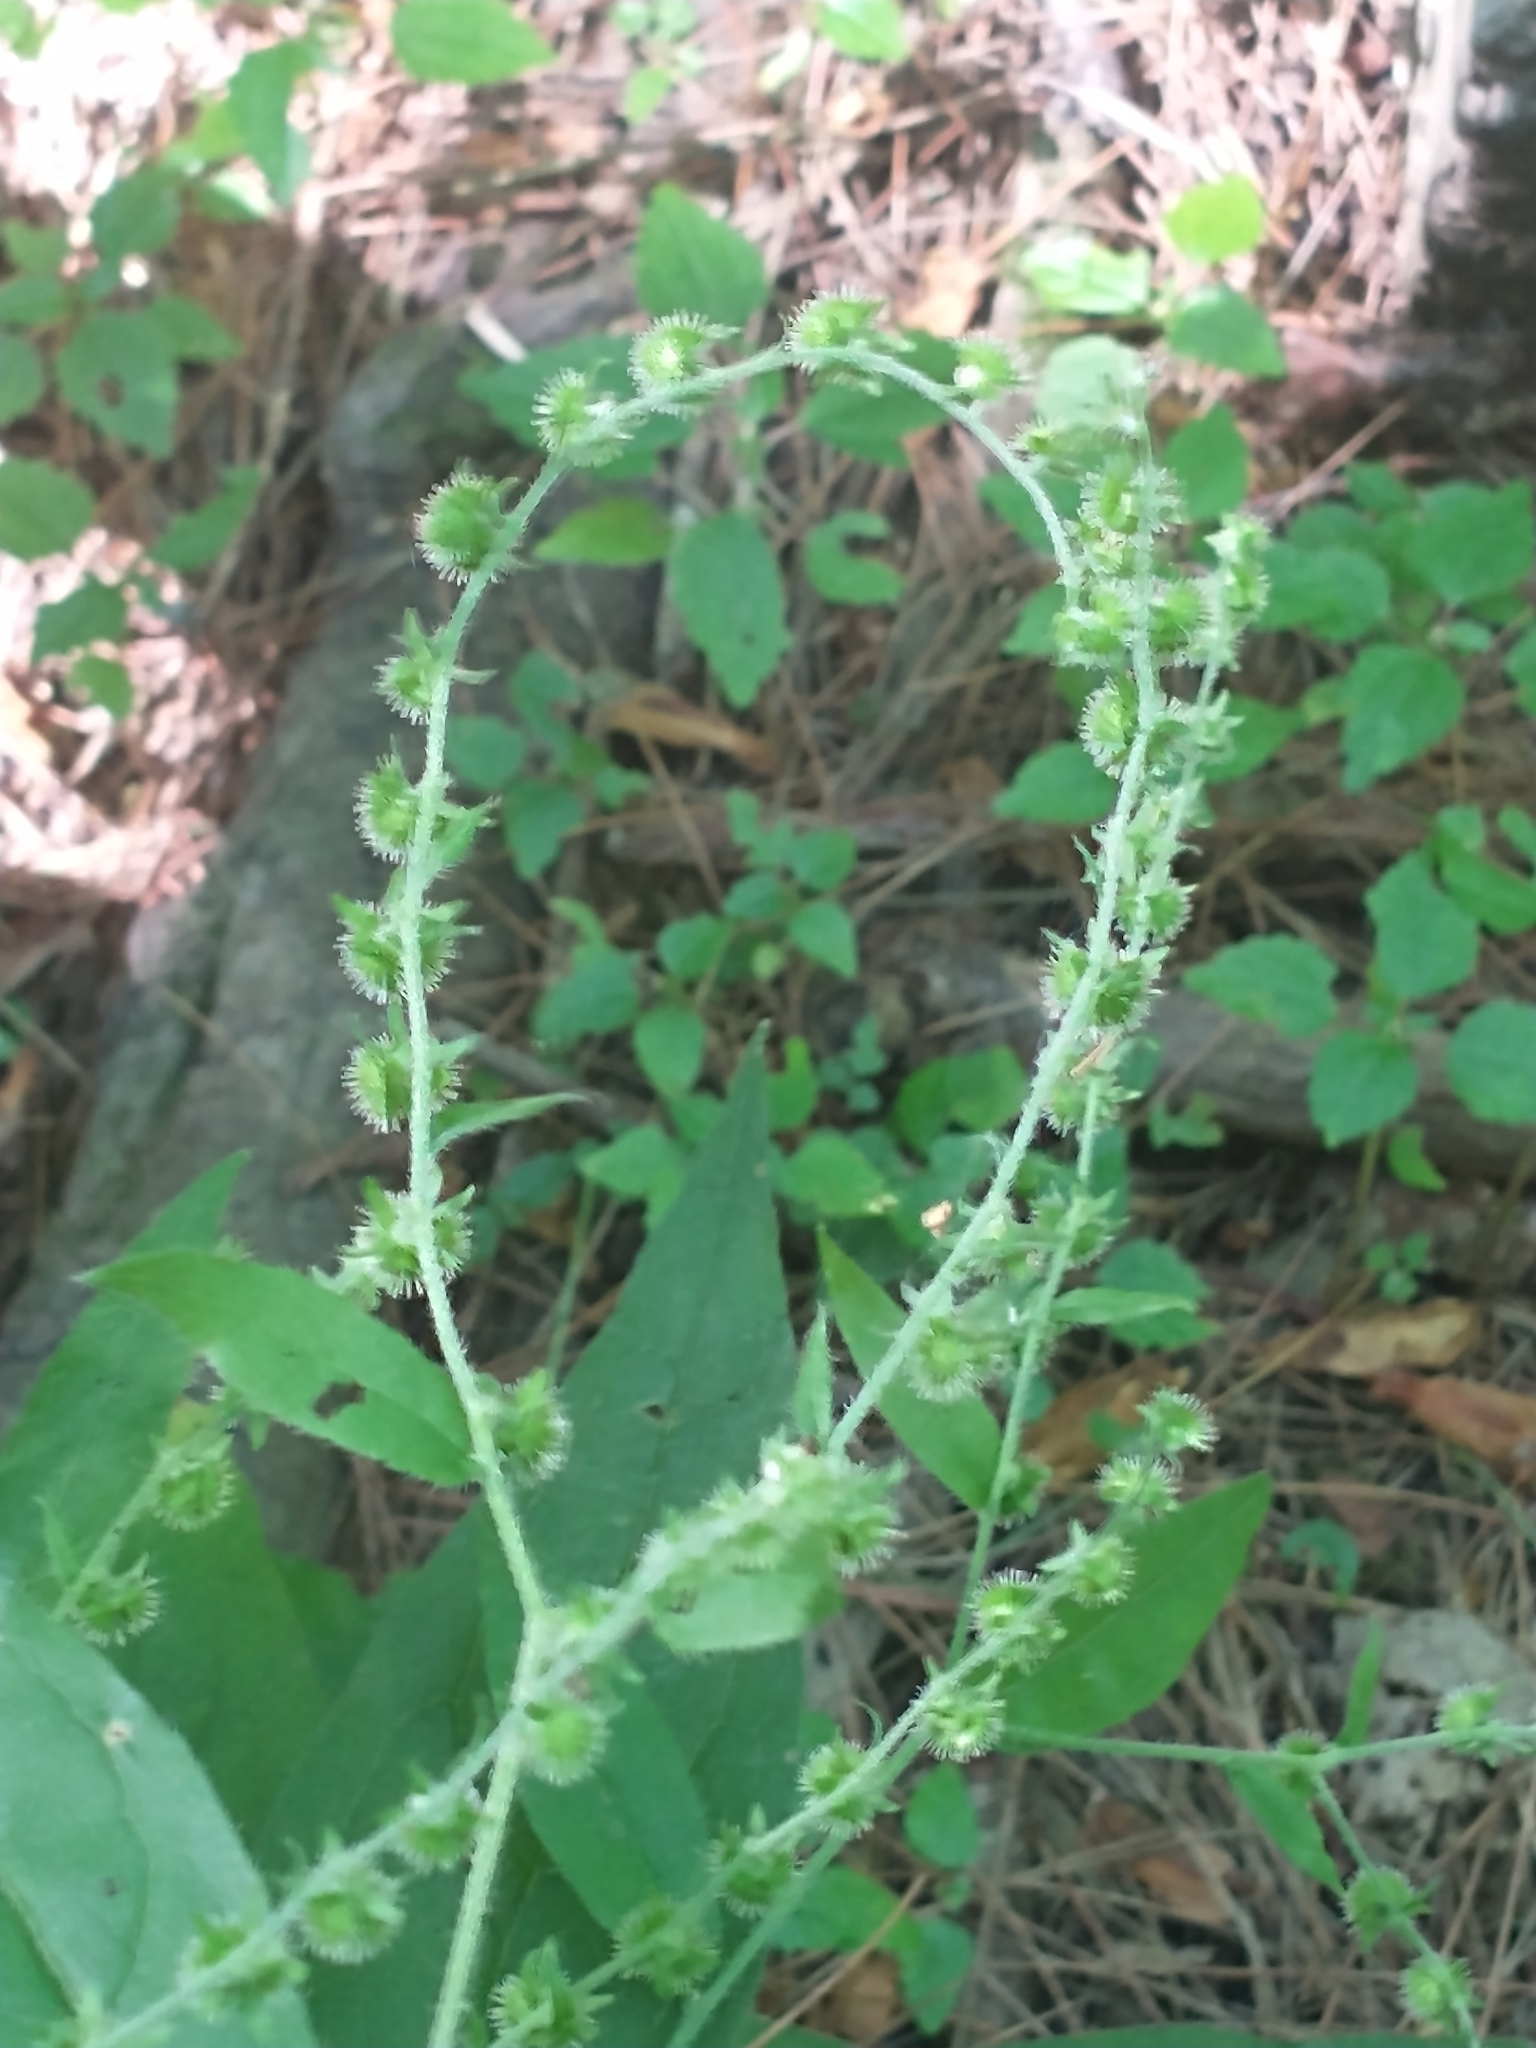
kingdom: Plantae
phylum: Tracheophyta
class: Magnoliopsida
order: Boraginales
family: Boraginaceae
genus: Hackelia
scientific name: Hackelia virginiana
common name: Beggar's-lice
